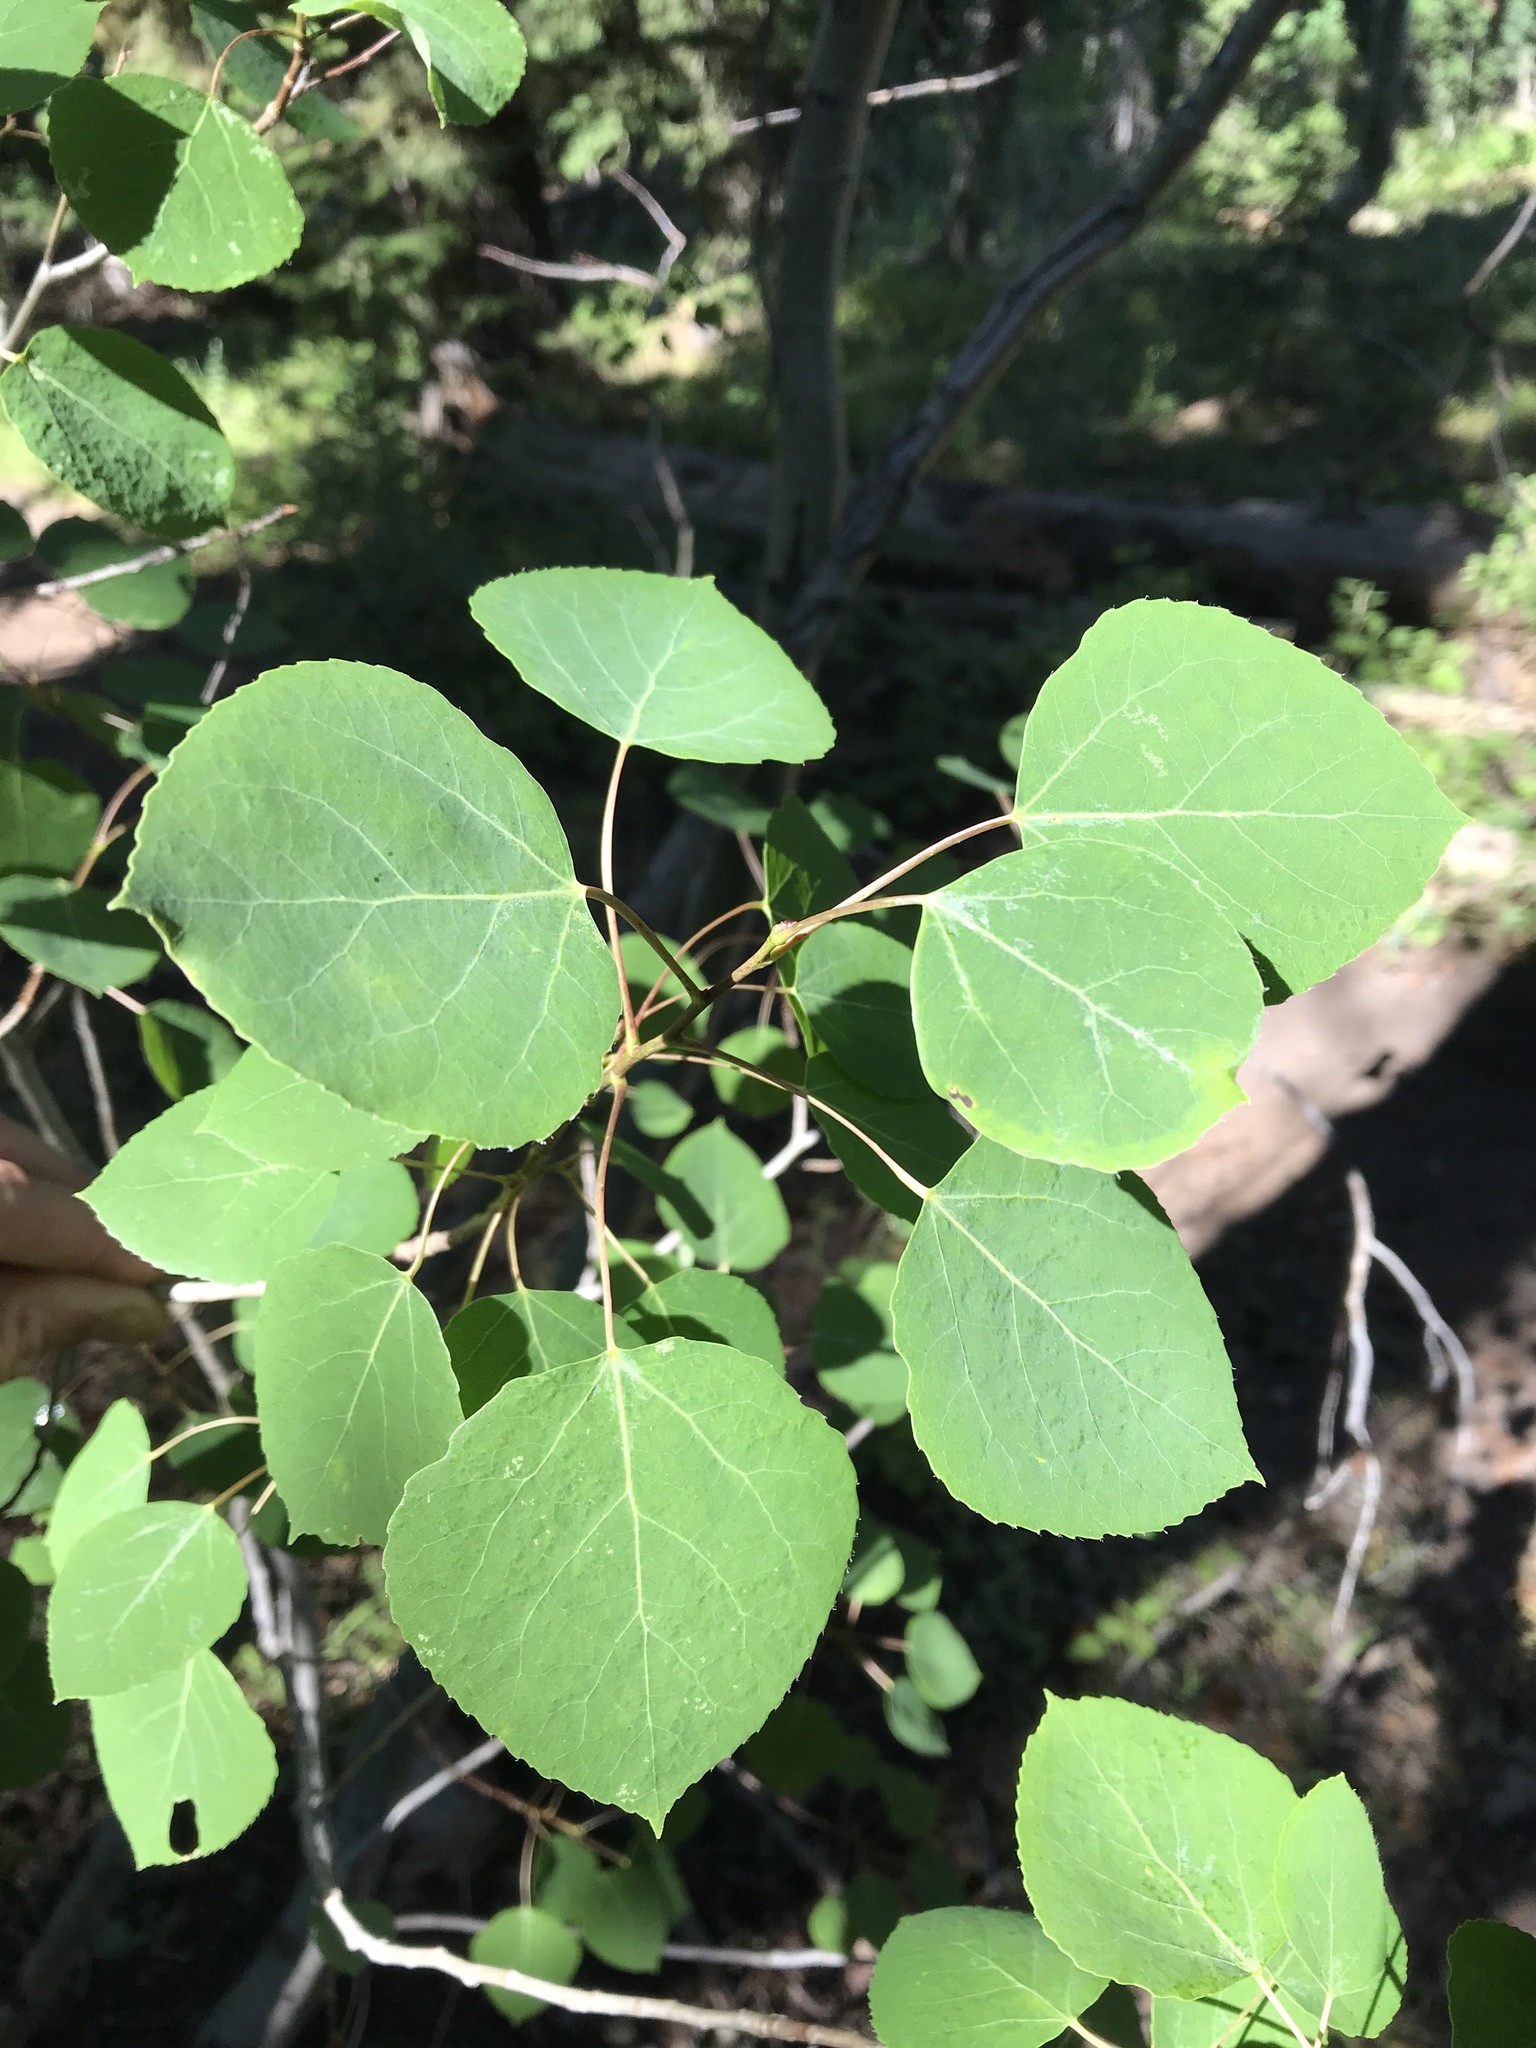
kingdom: Plantae
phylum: Tracheophyta
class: Magnoliopsida
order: Malpighiales
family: Salicaceae
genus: Populus
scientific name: Populus tremuloides
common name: Quaking aspen
